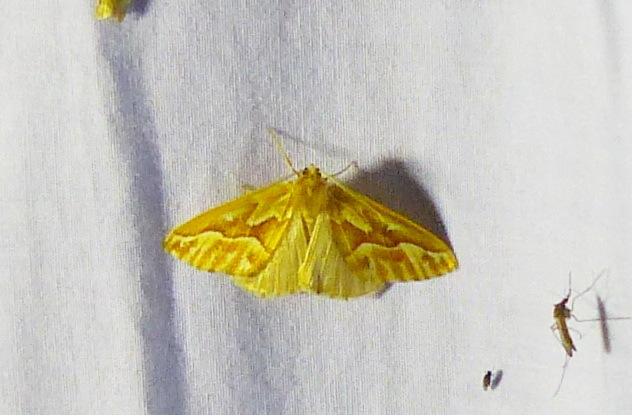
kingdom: Animalia
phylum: Arthropoda
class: Insecta
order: Lepidoptera
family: Geometridae
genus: Caripeta
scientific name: Caripeta piniata
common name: Northern pine looper moth
